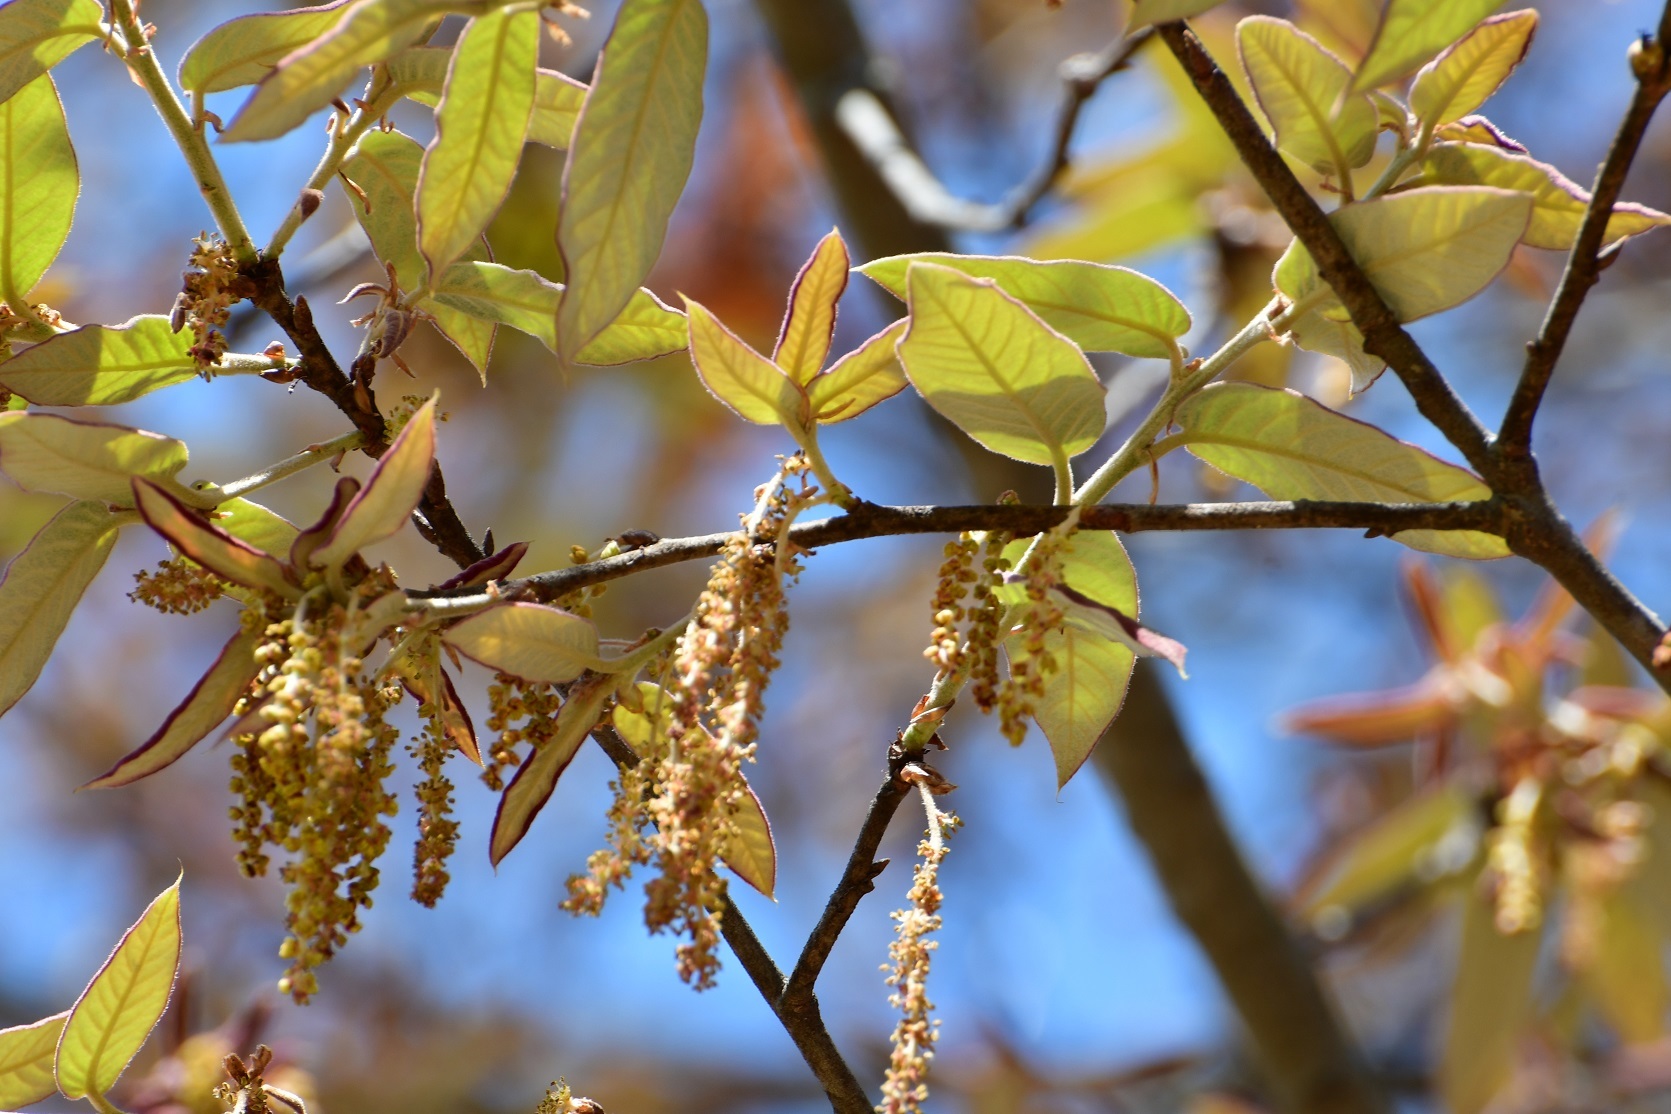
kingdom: Plantae
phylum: Tracheophyta
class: Magnoliopsida
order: Fagales
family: Fagaceae
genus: Quercus
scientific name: Quercus dysophylla
